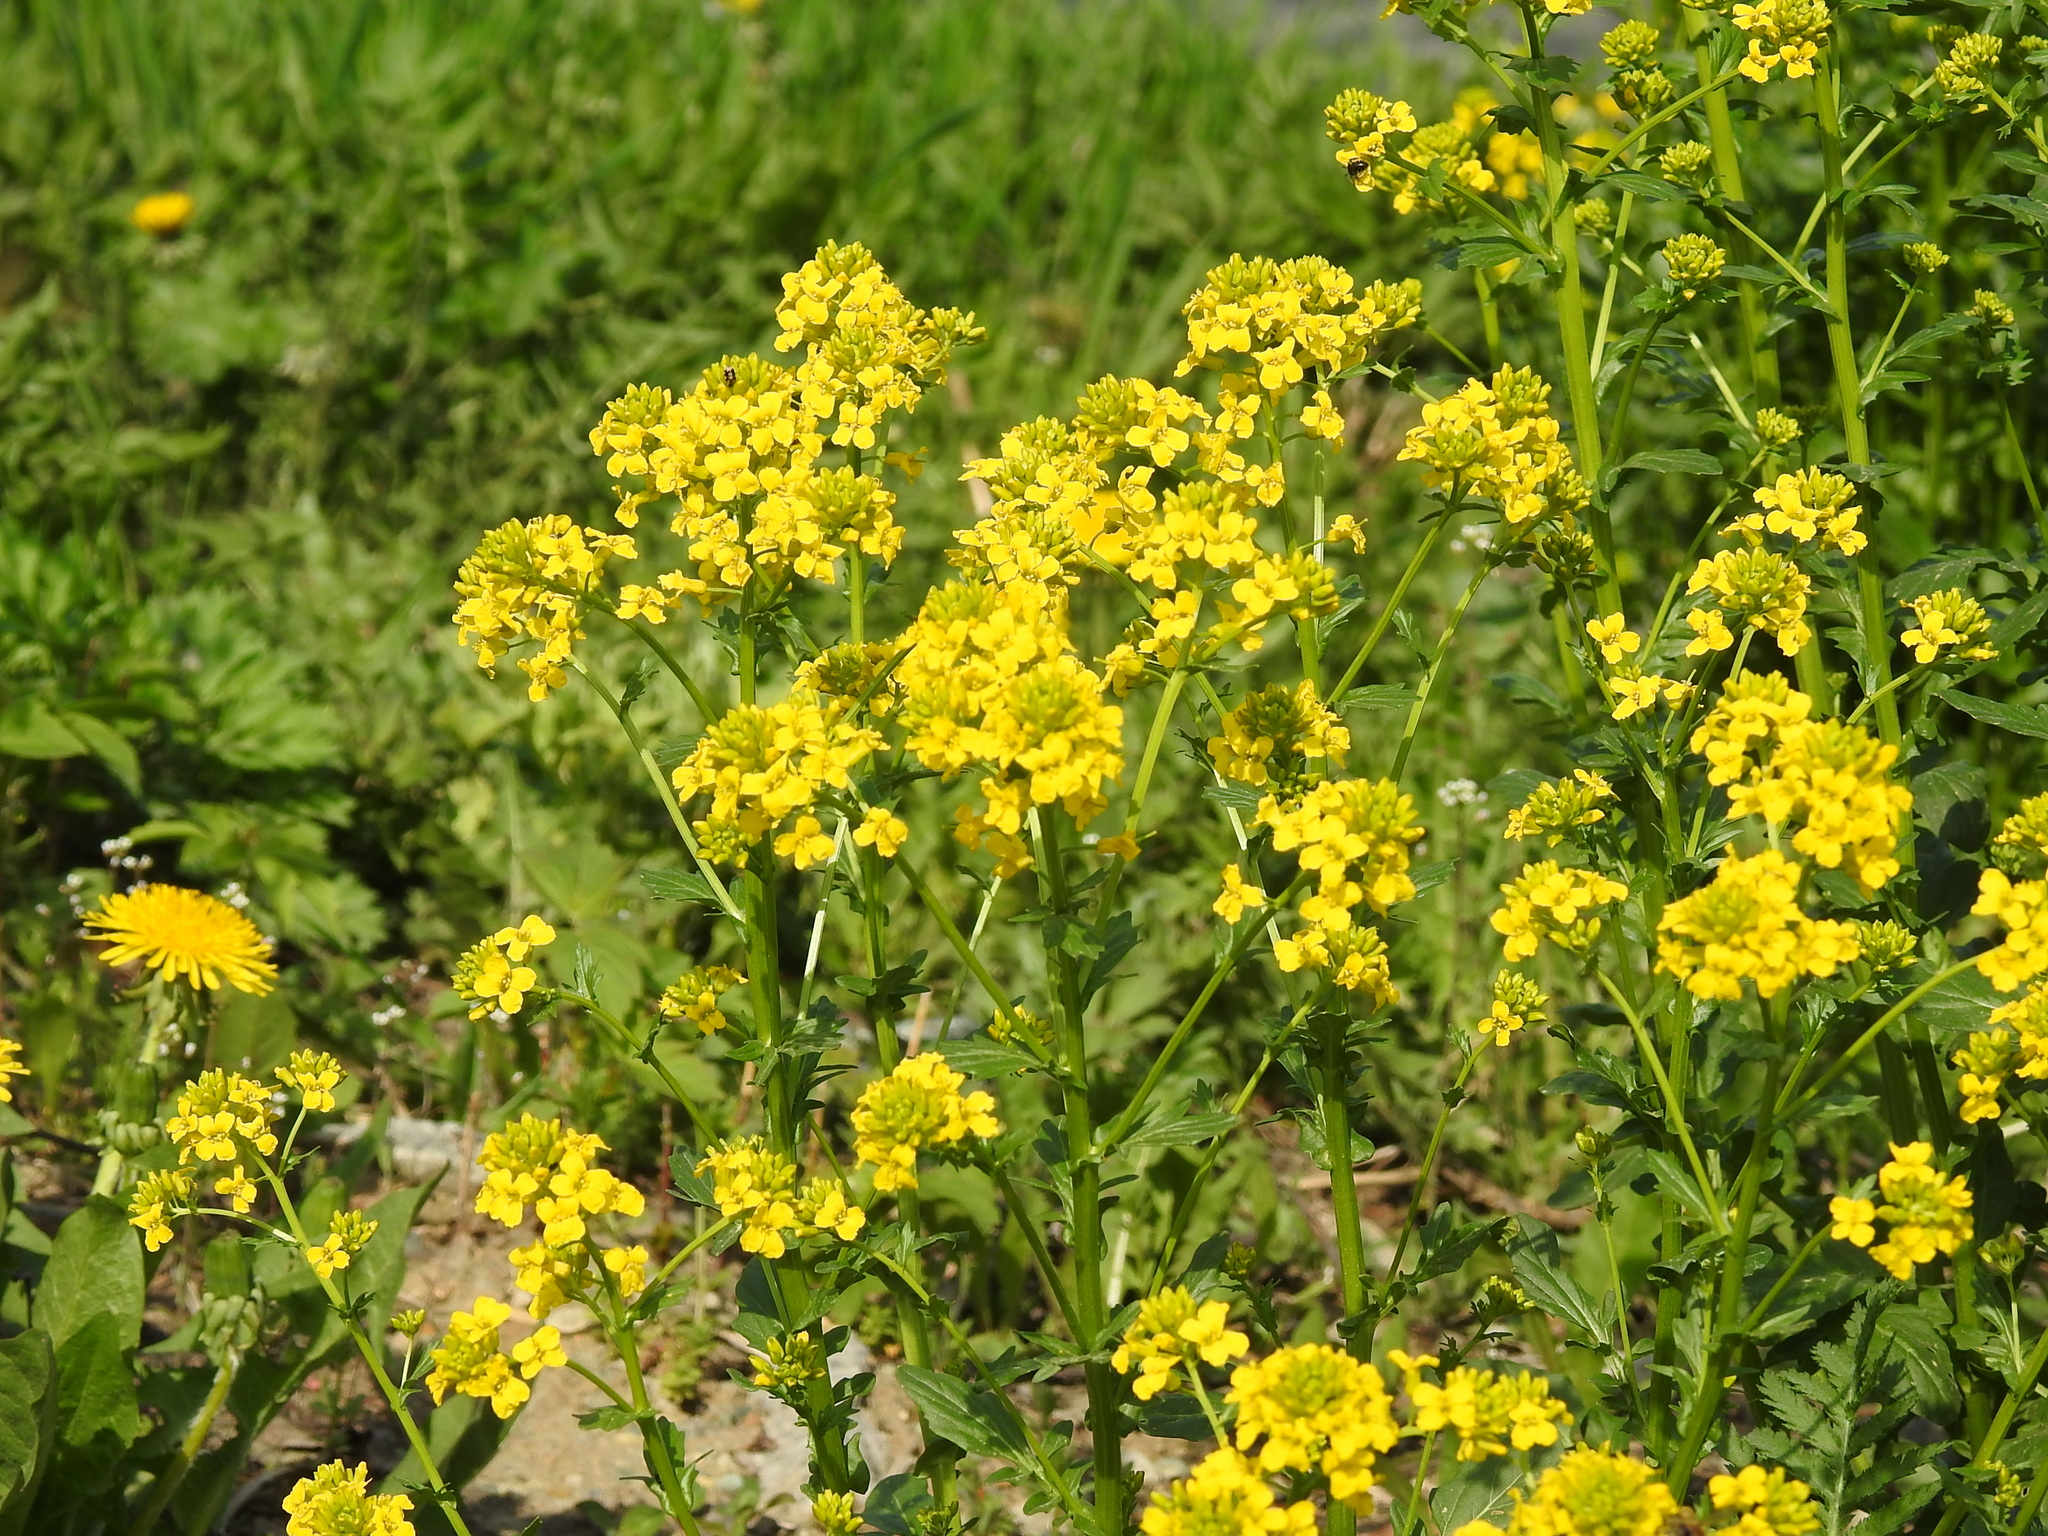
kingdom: Plantae
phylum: Tracheophyta
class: Magnoliopsida
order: Brassicales
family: Brassicaceae
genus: Barbarea
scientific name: Barbarea vulgaris
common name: Cressy-greens
